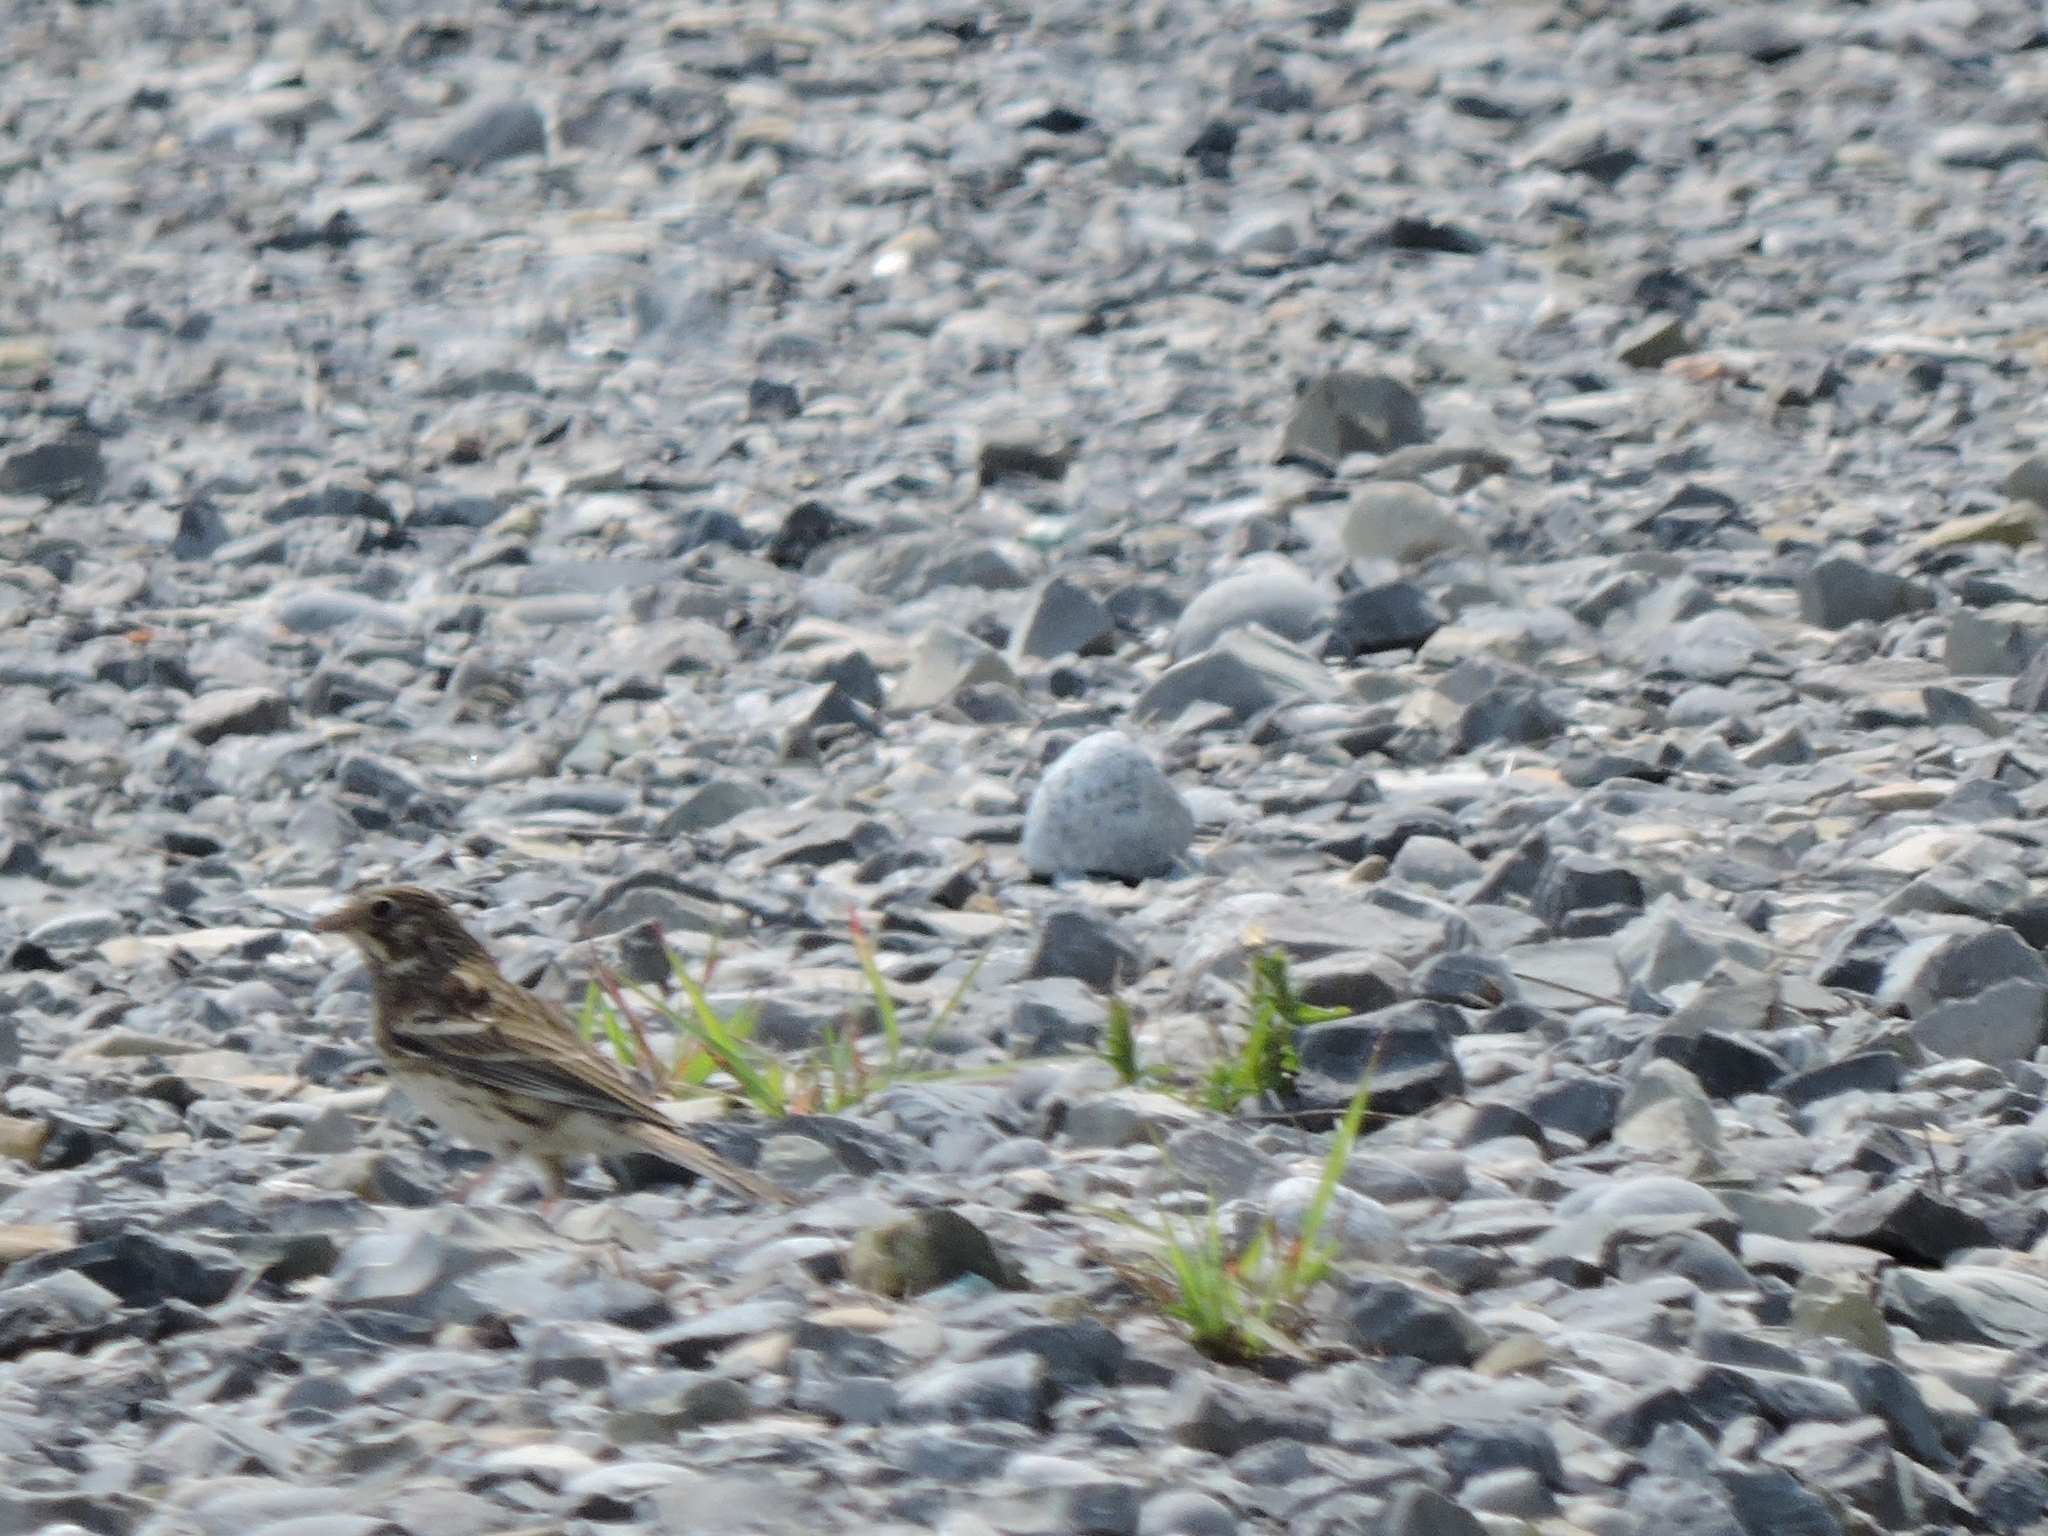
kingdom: Animalia
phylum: Chordata
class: Aves
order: Passeriformes
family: Passerellidae
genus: Pooecetes
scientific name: Pooecetes gramineus
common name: Vesper sparrow
